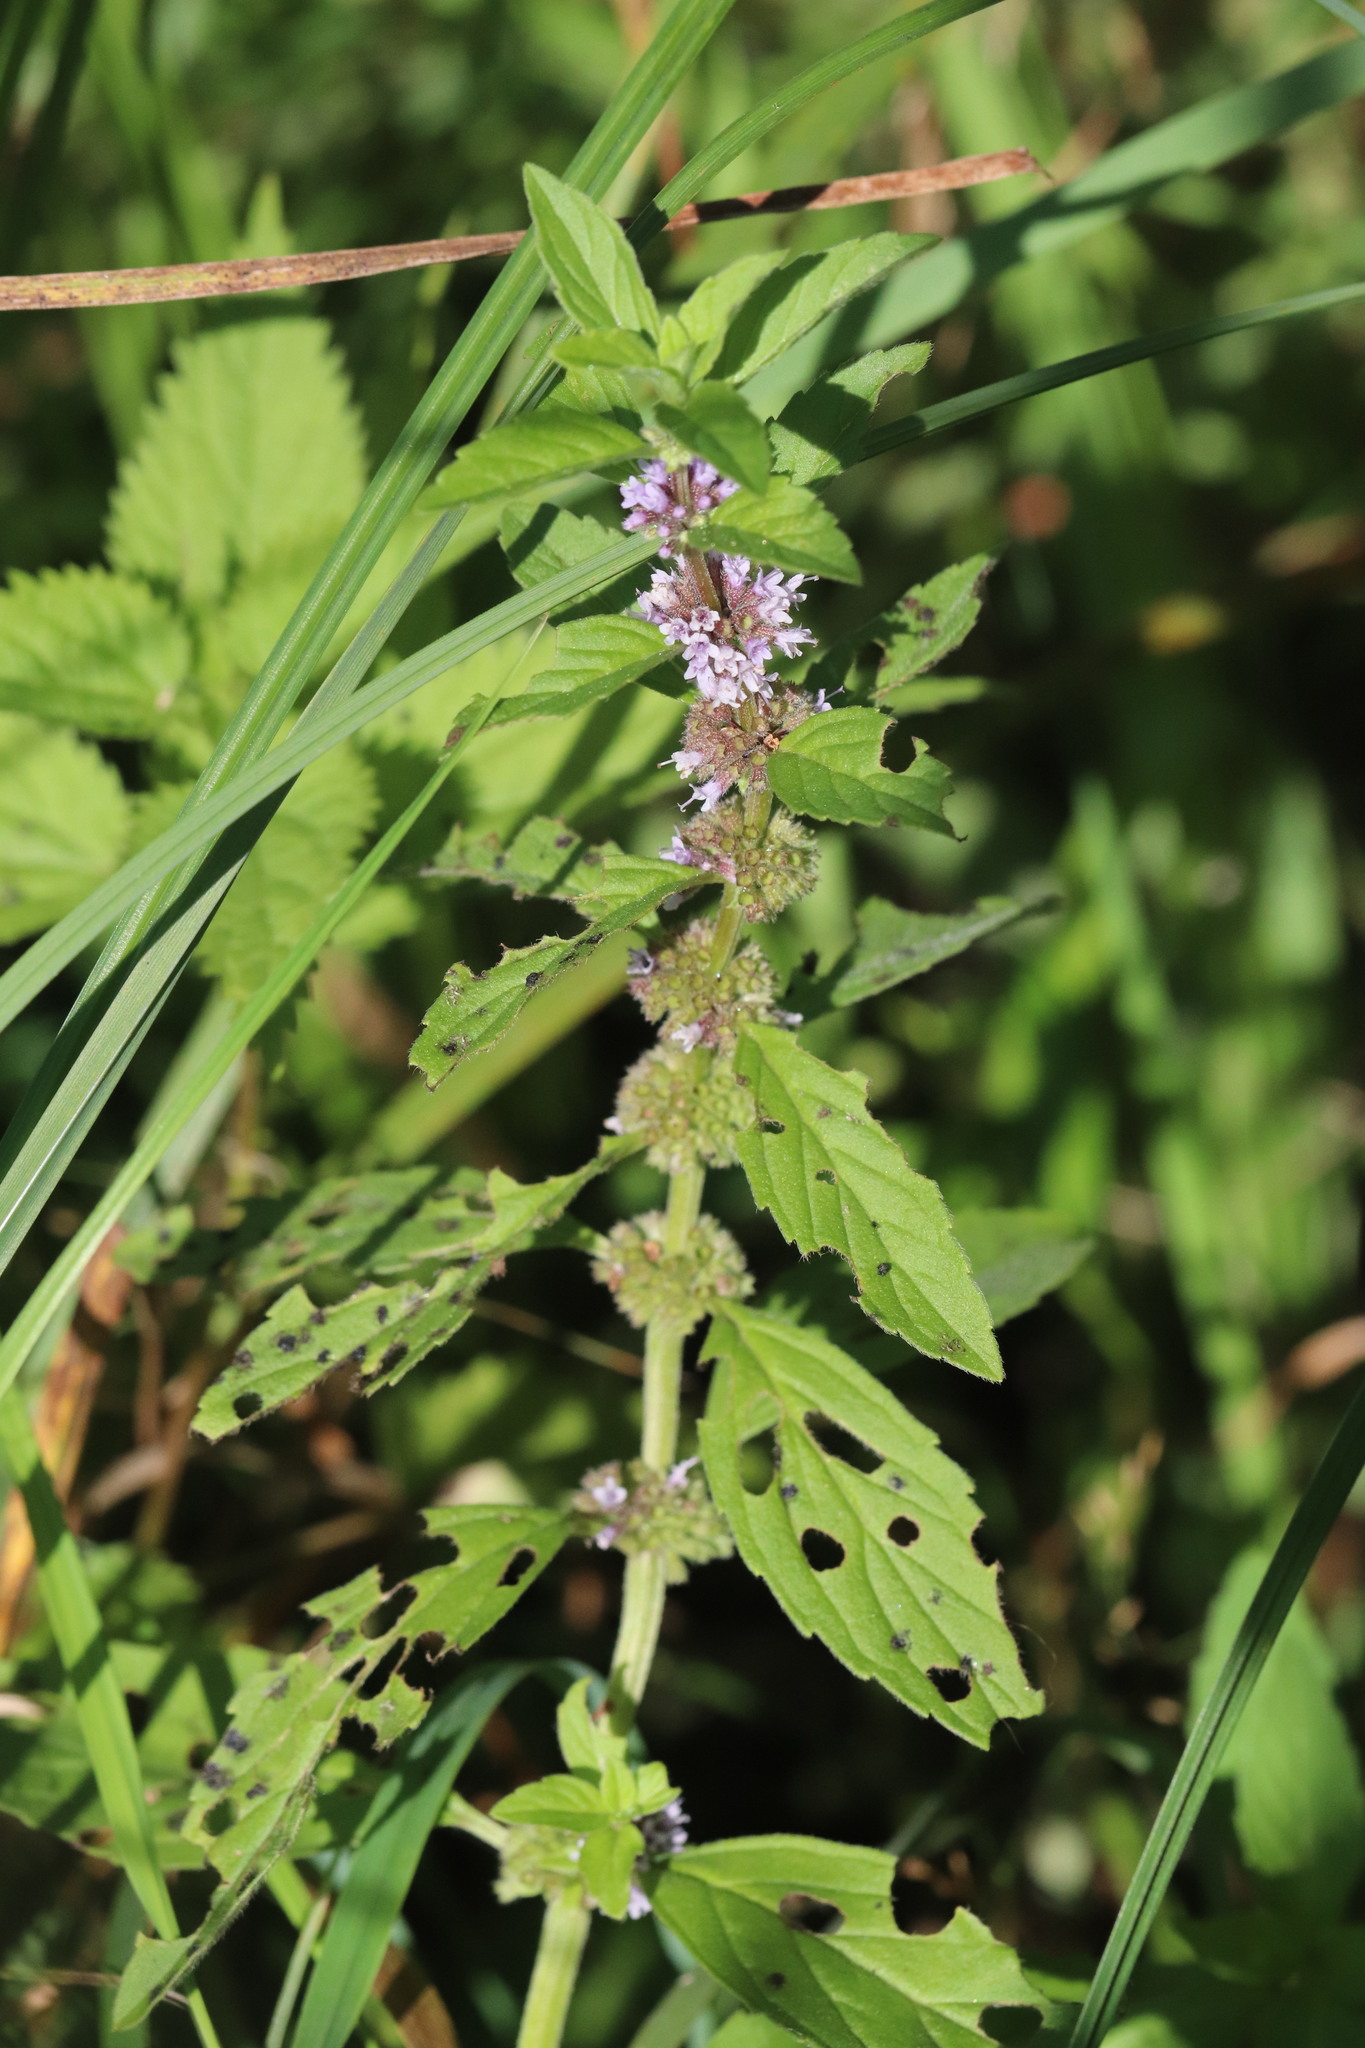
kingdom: Plantae
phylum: Tracheophyta
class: Magnoliopsida
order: Lamiales
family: Lamiaceae
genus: Mentha
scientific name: Mentha arvensis
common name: Corn mint
